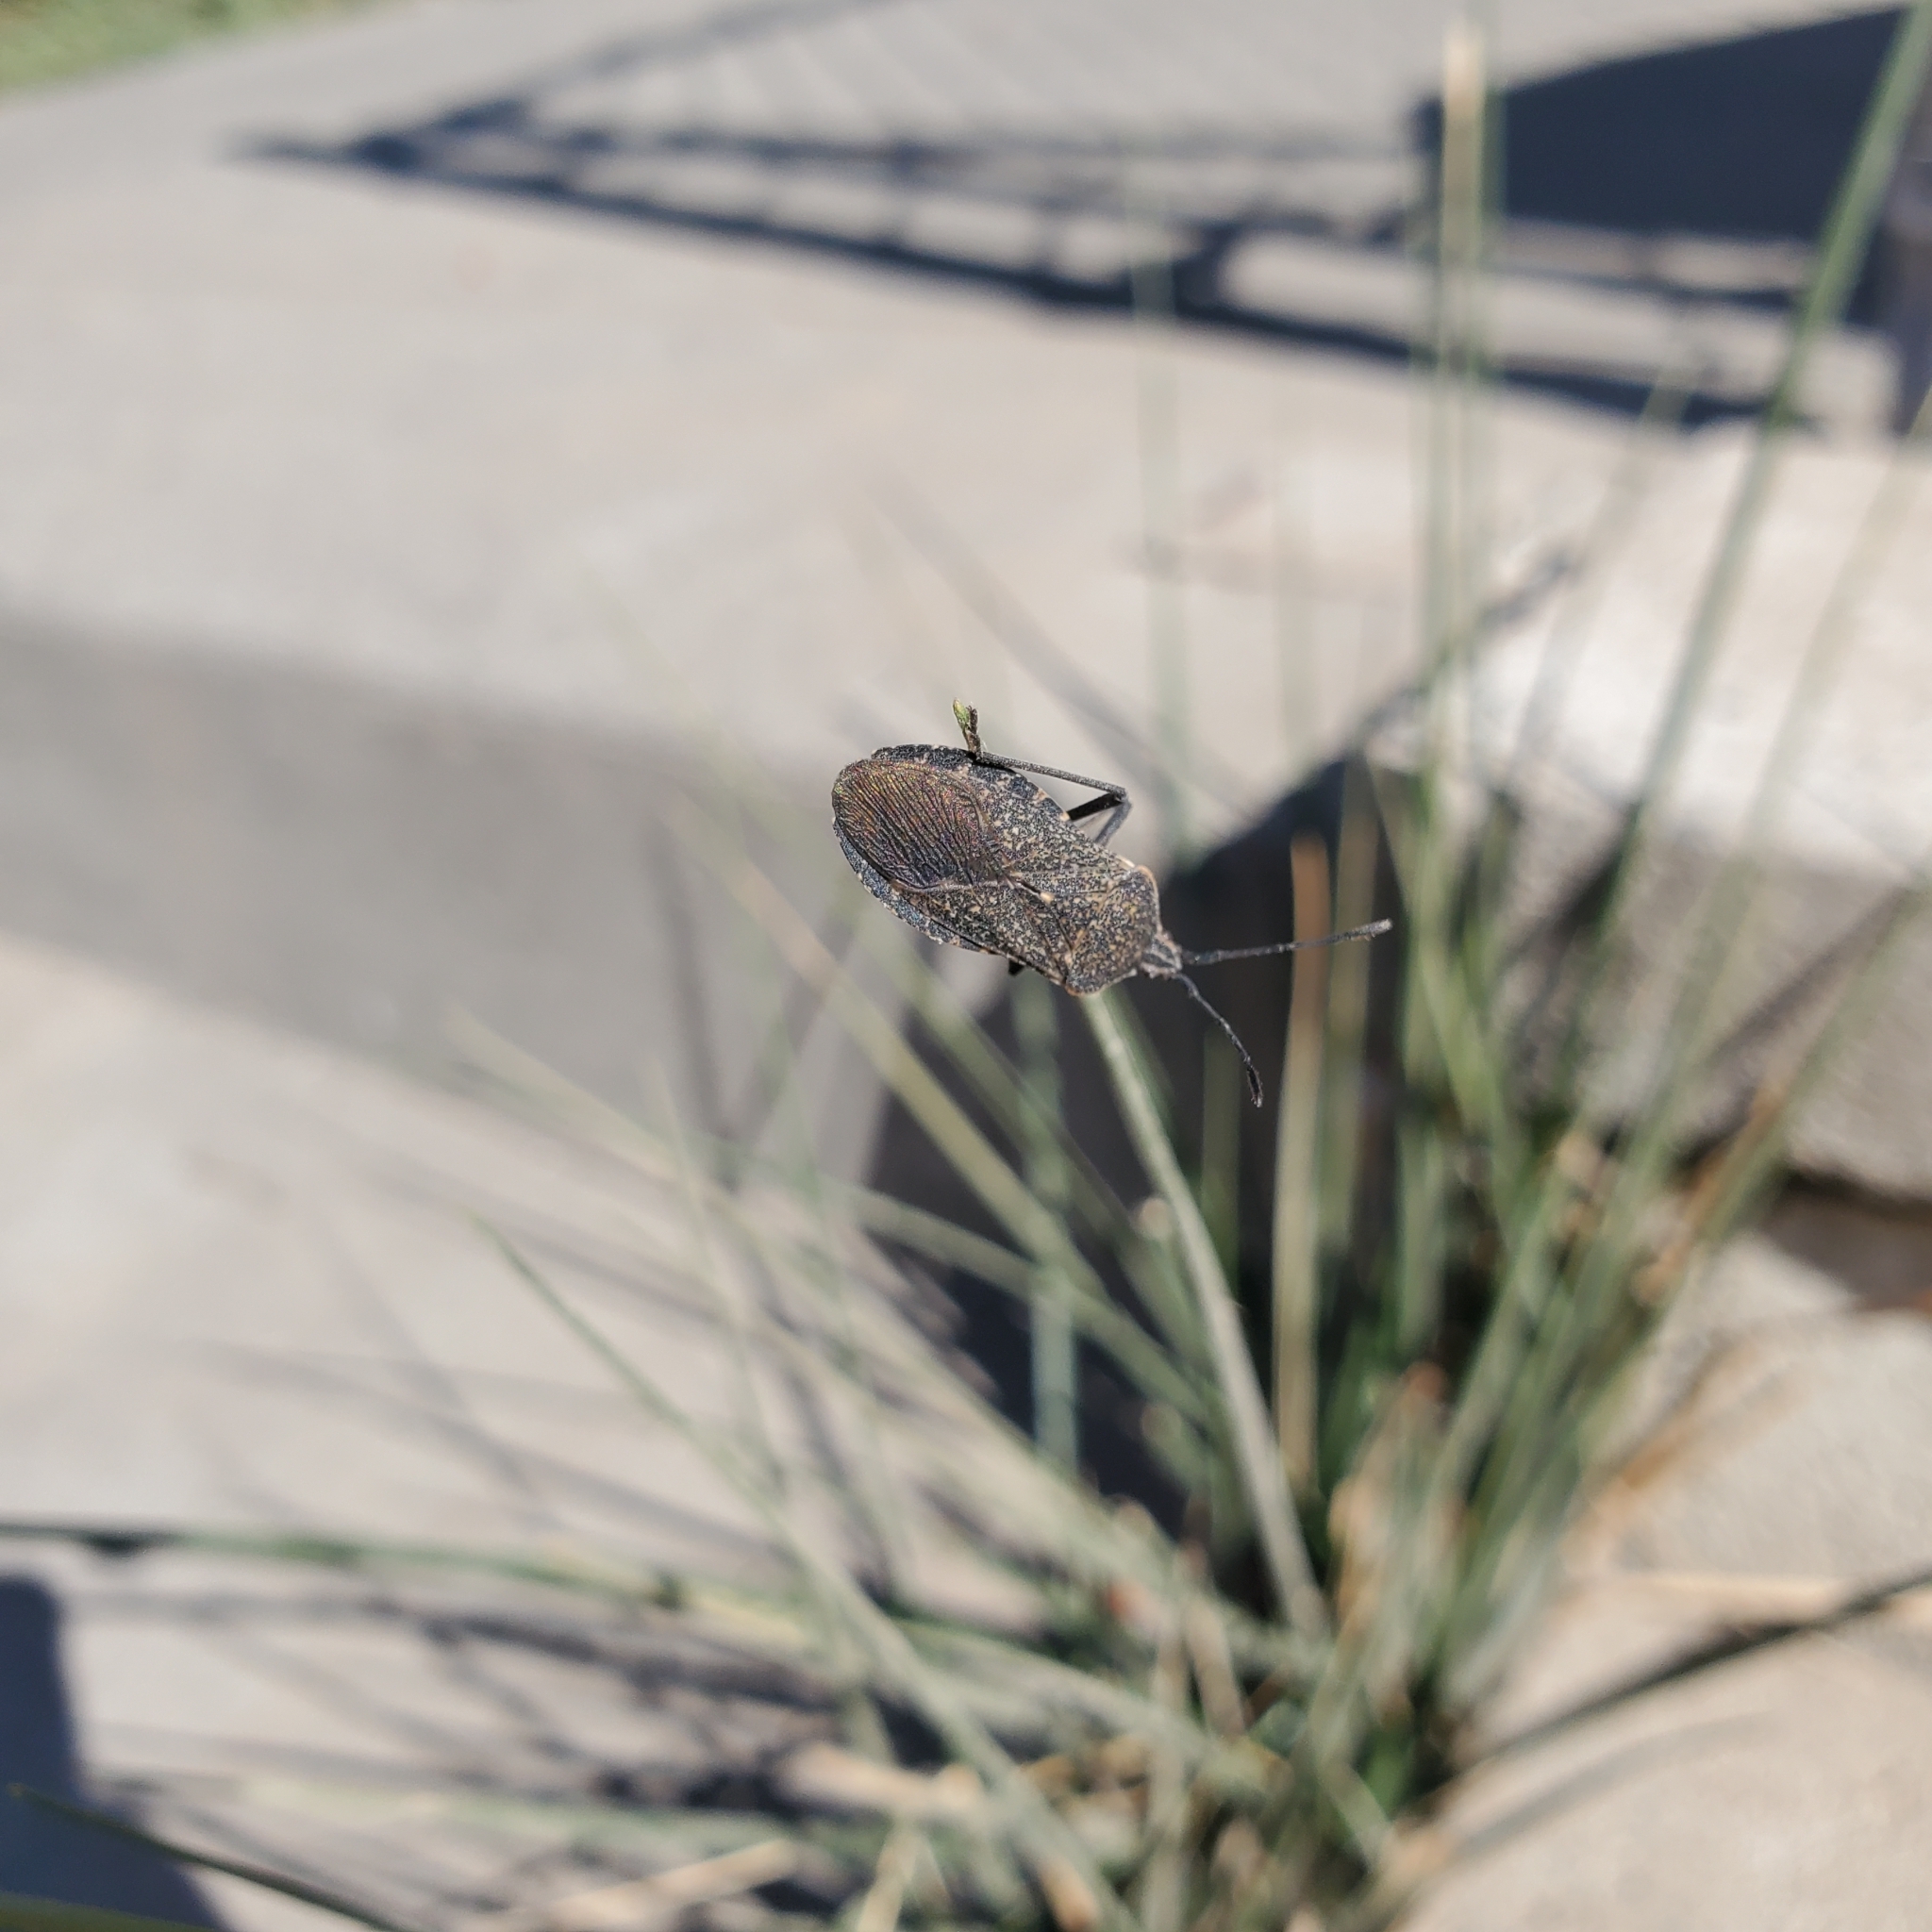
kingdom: Animalia
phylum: Arthropoda
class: Insecta
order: Hemiptera
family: Coreidae
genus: Anasa
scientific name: Anasa tristis
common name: Squash bug
